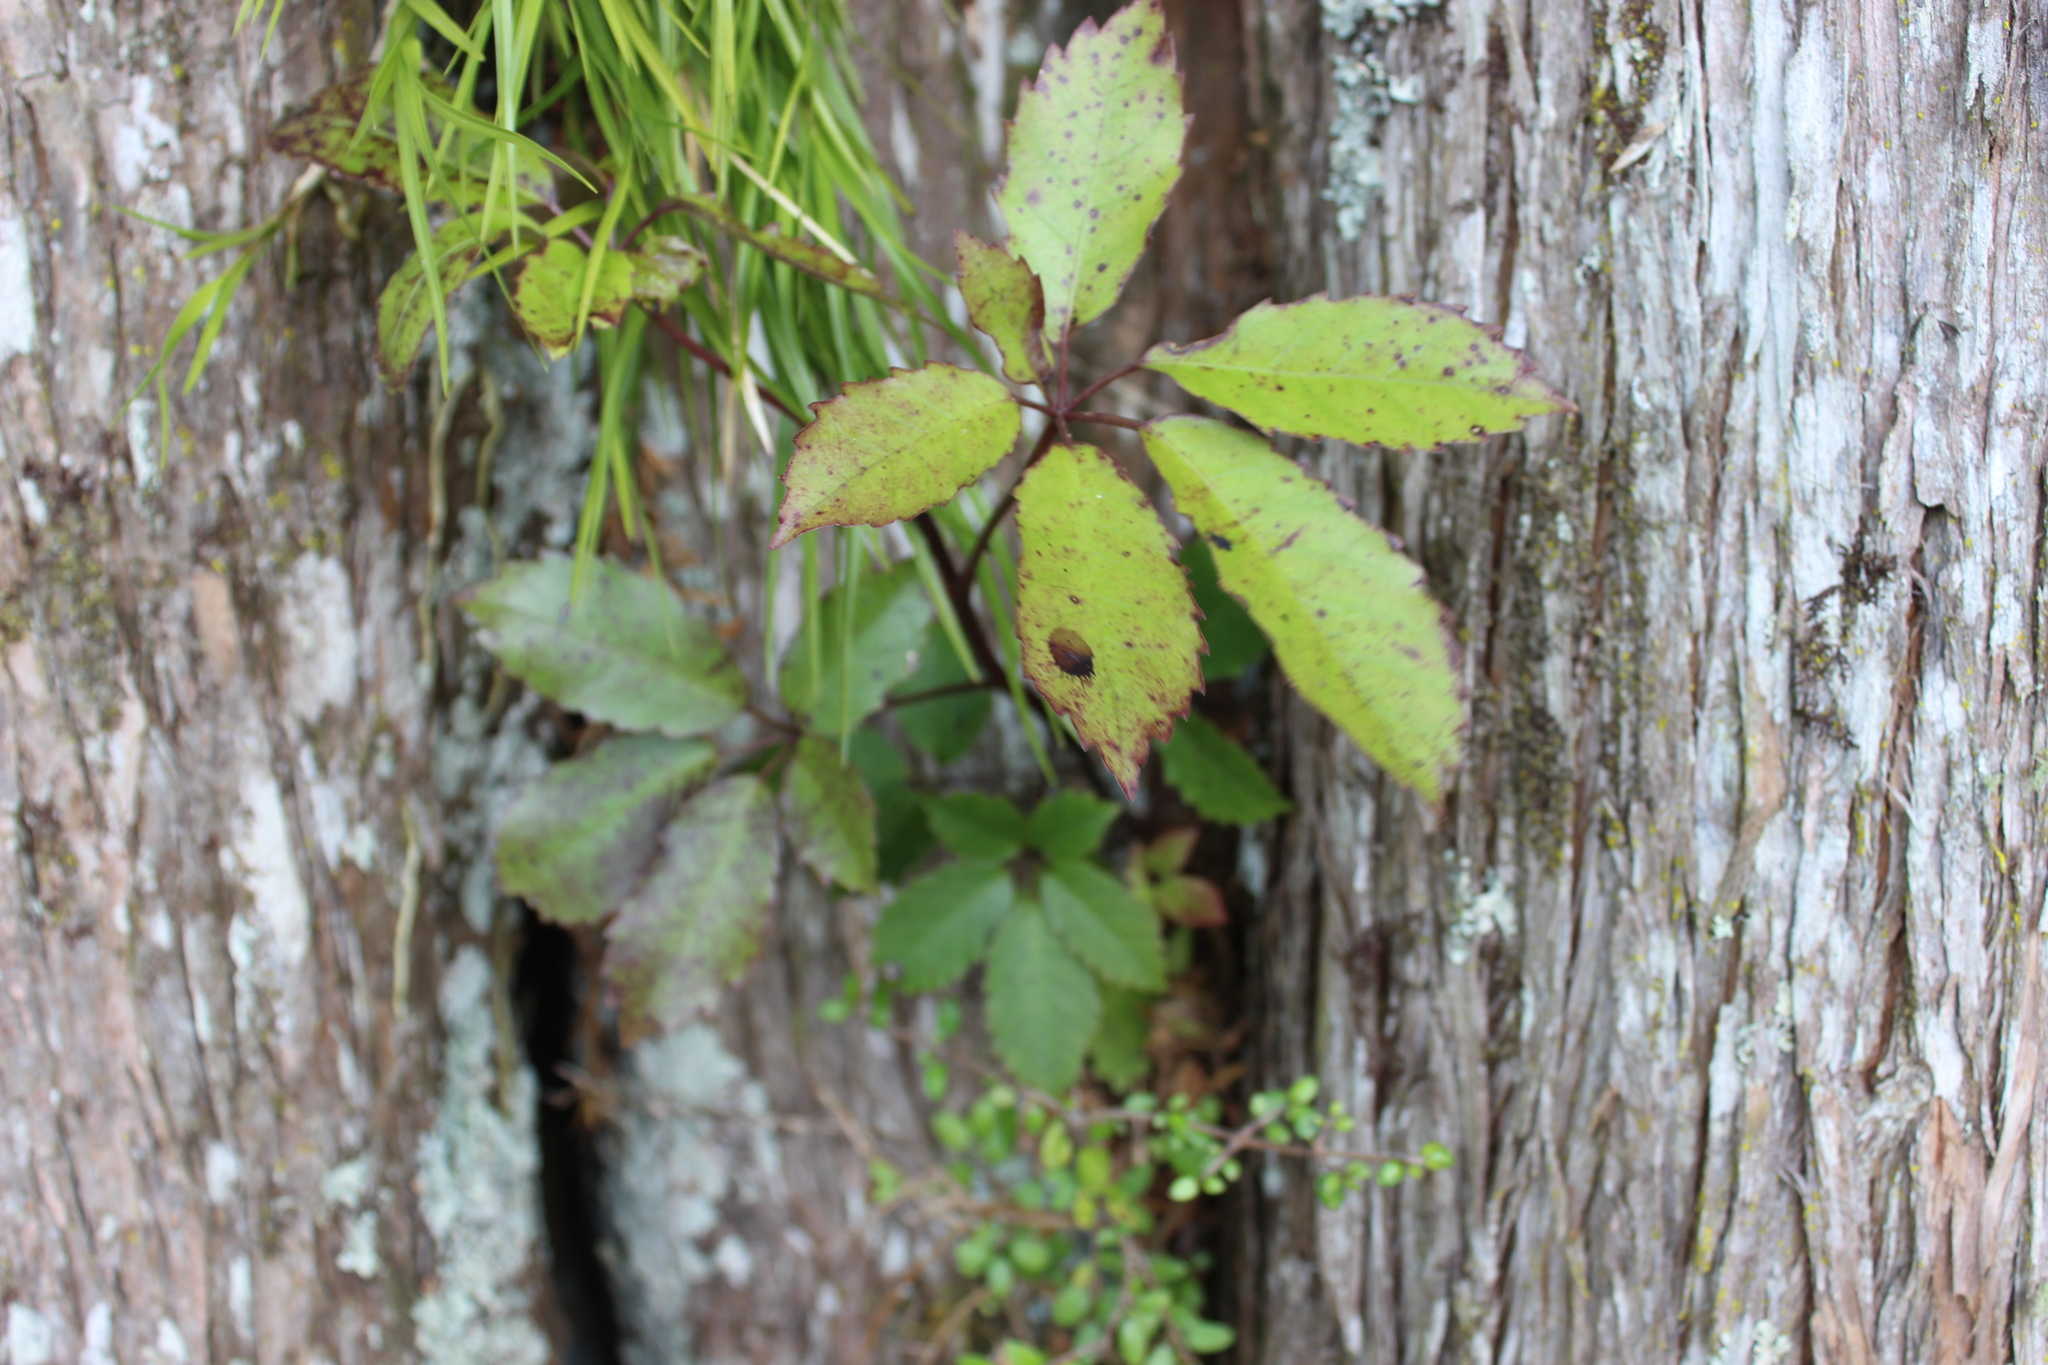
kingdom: Plantae
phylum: Tracheophyta
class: Magnoliopsida
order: Apiales
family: Araliaceae
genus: Neopanax
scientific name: Neopanax arboreus
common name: Five-fingers
